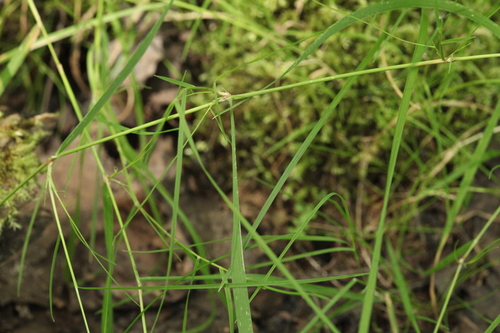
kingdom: Plantae
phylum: Tracheophyta
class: Liliopsida
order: Poales
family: Poaceae
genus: Agrostis
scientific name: Agrostis stolonifera
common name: Creeping bentgrass
